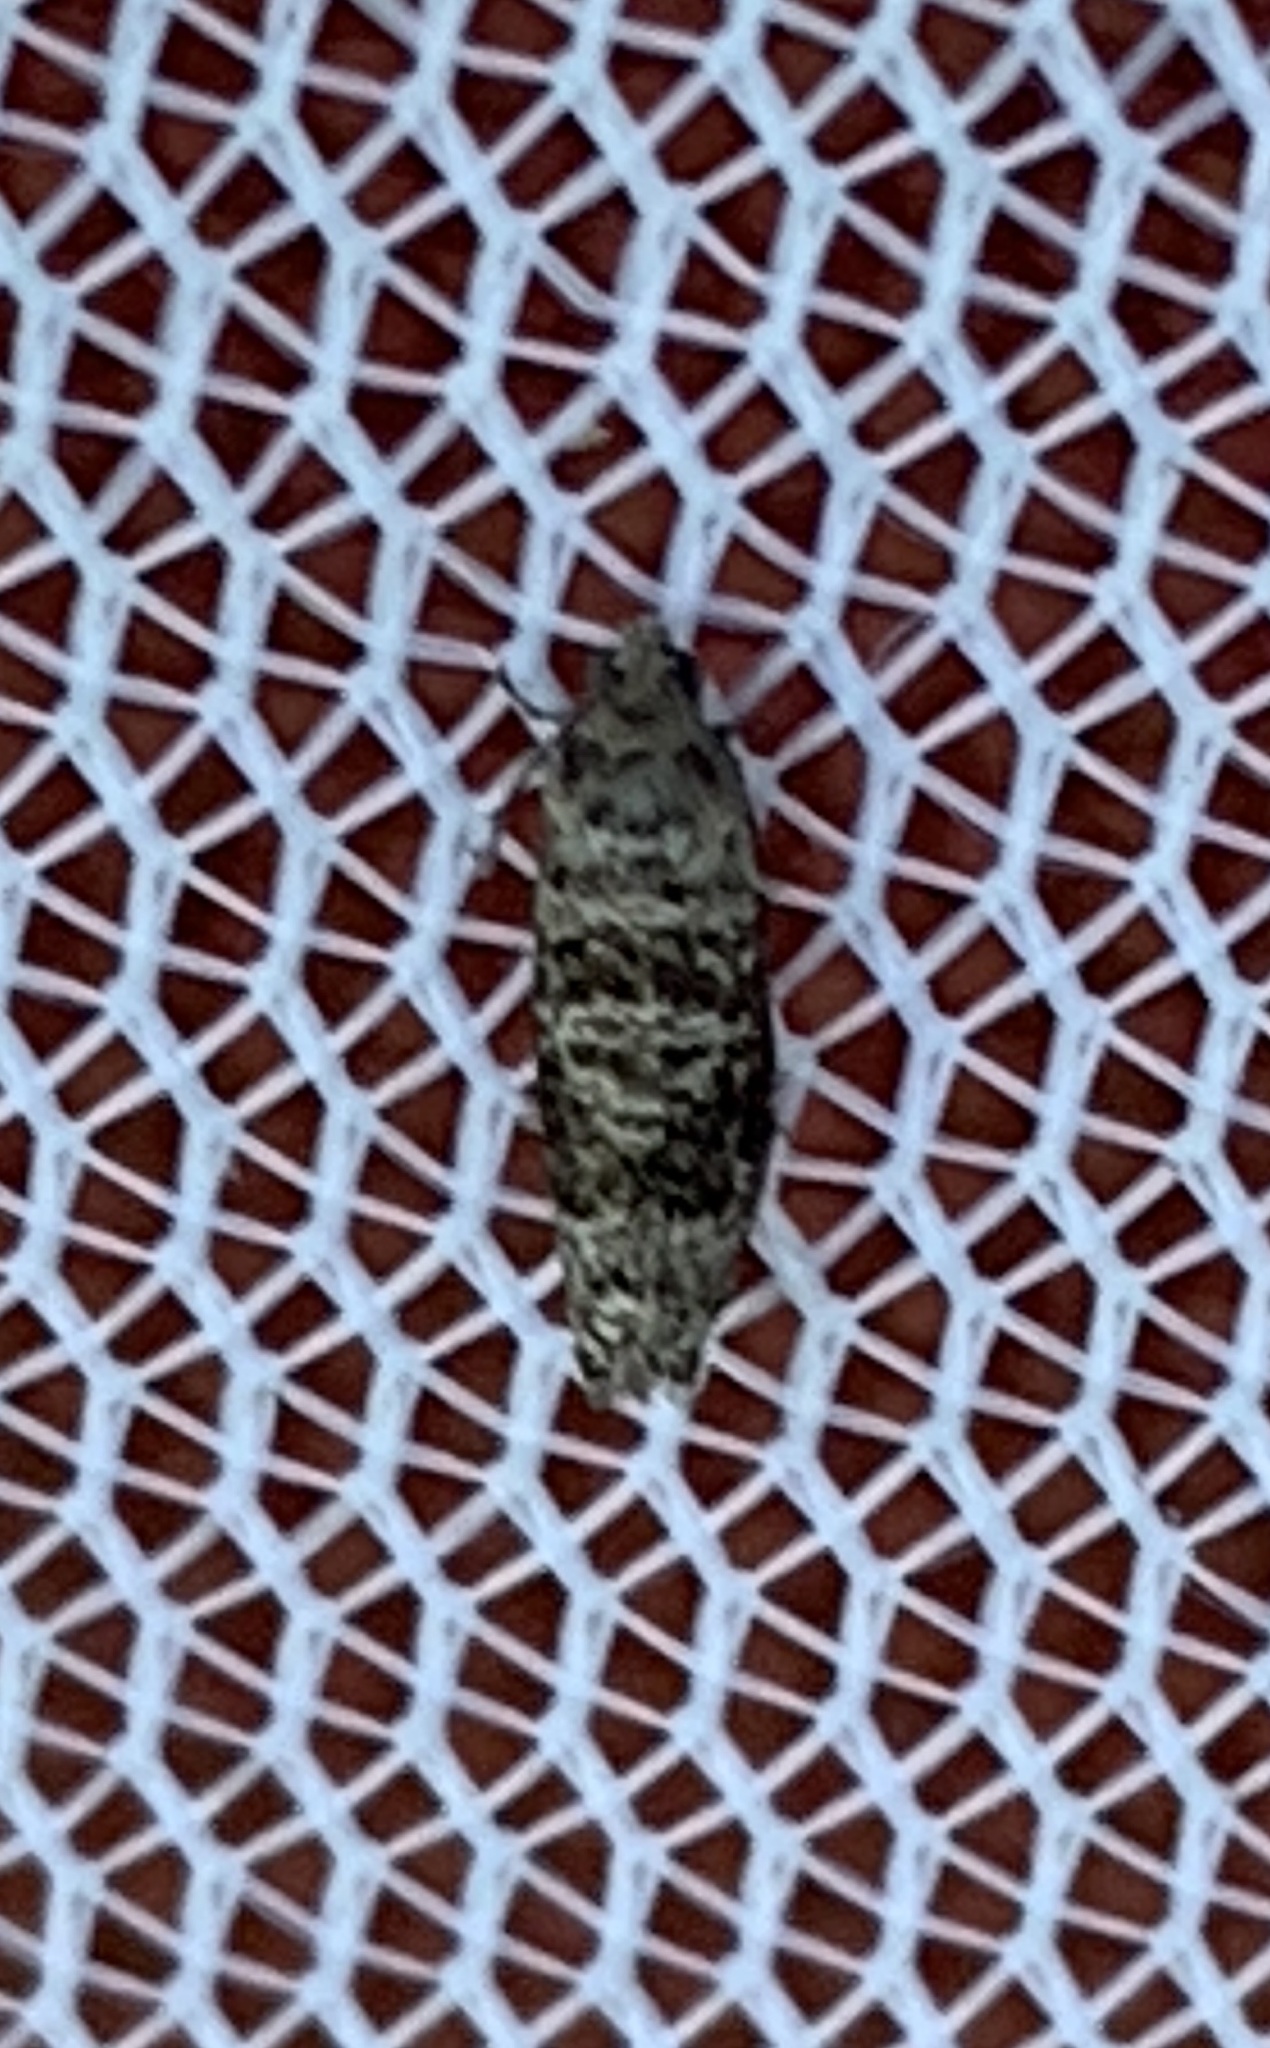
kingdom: Animalia
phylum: Arthropoda
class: Insecta
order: Lepidoptera
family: Noctuidae
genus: Aspila
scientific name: Aspila
